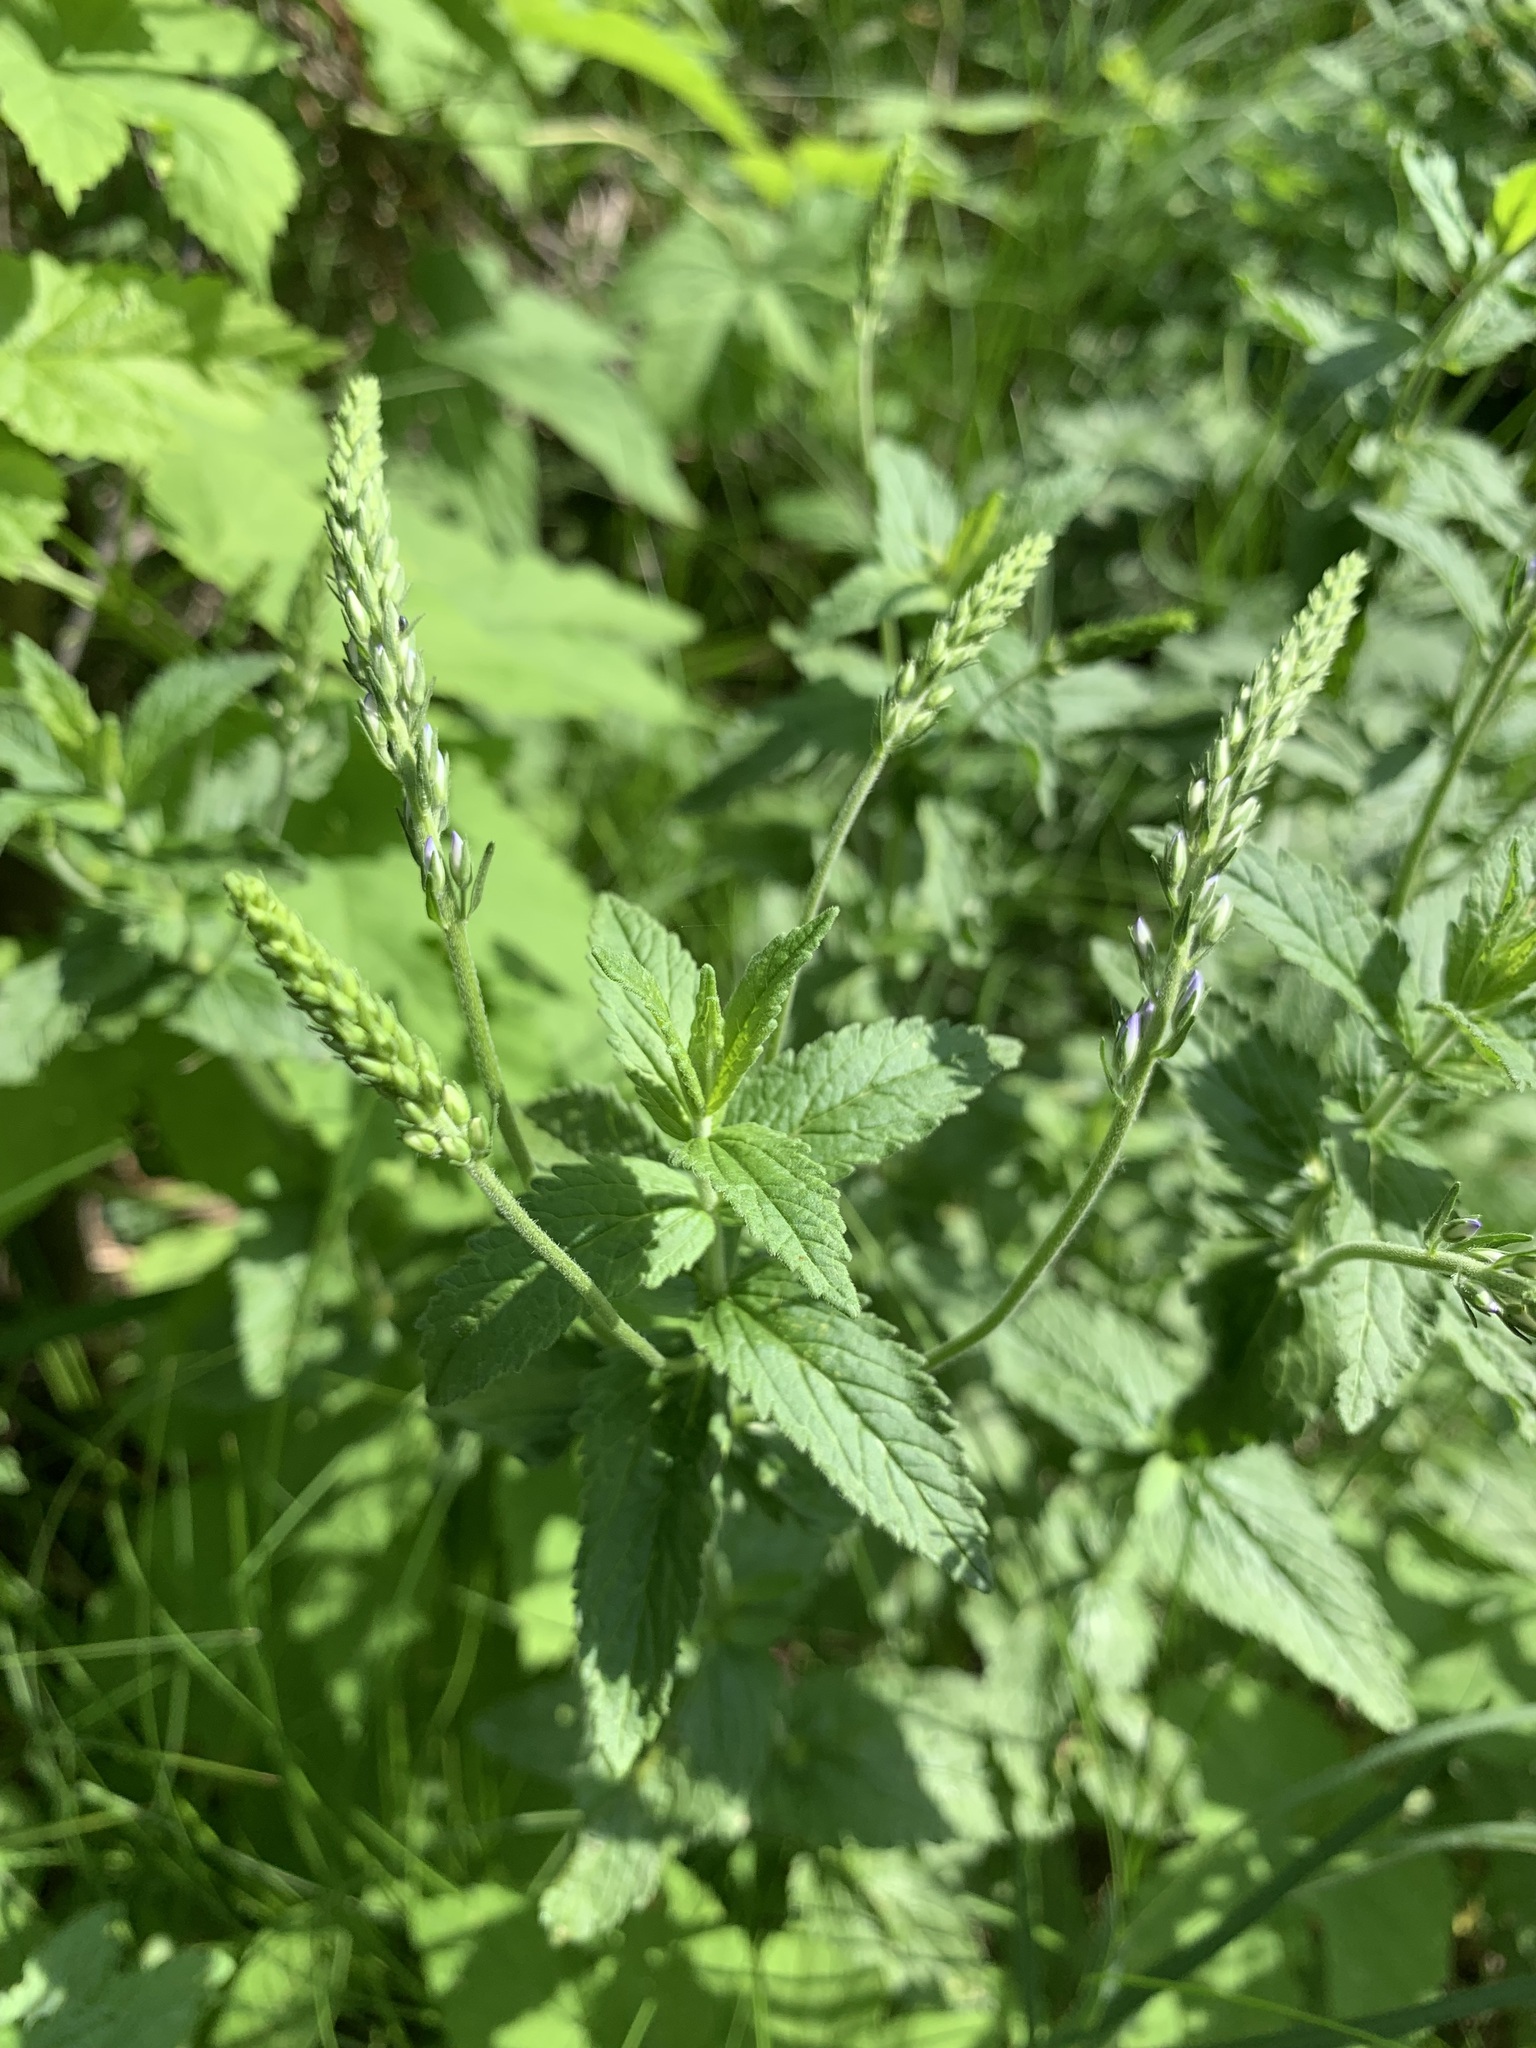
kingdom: Plantae
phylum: Tracheophyta
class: Magnoliopsida
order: Lamiales
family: Plantaginaceae
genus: Veronica
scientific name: Veronica teucrium
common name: Large speedwell
